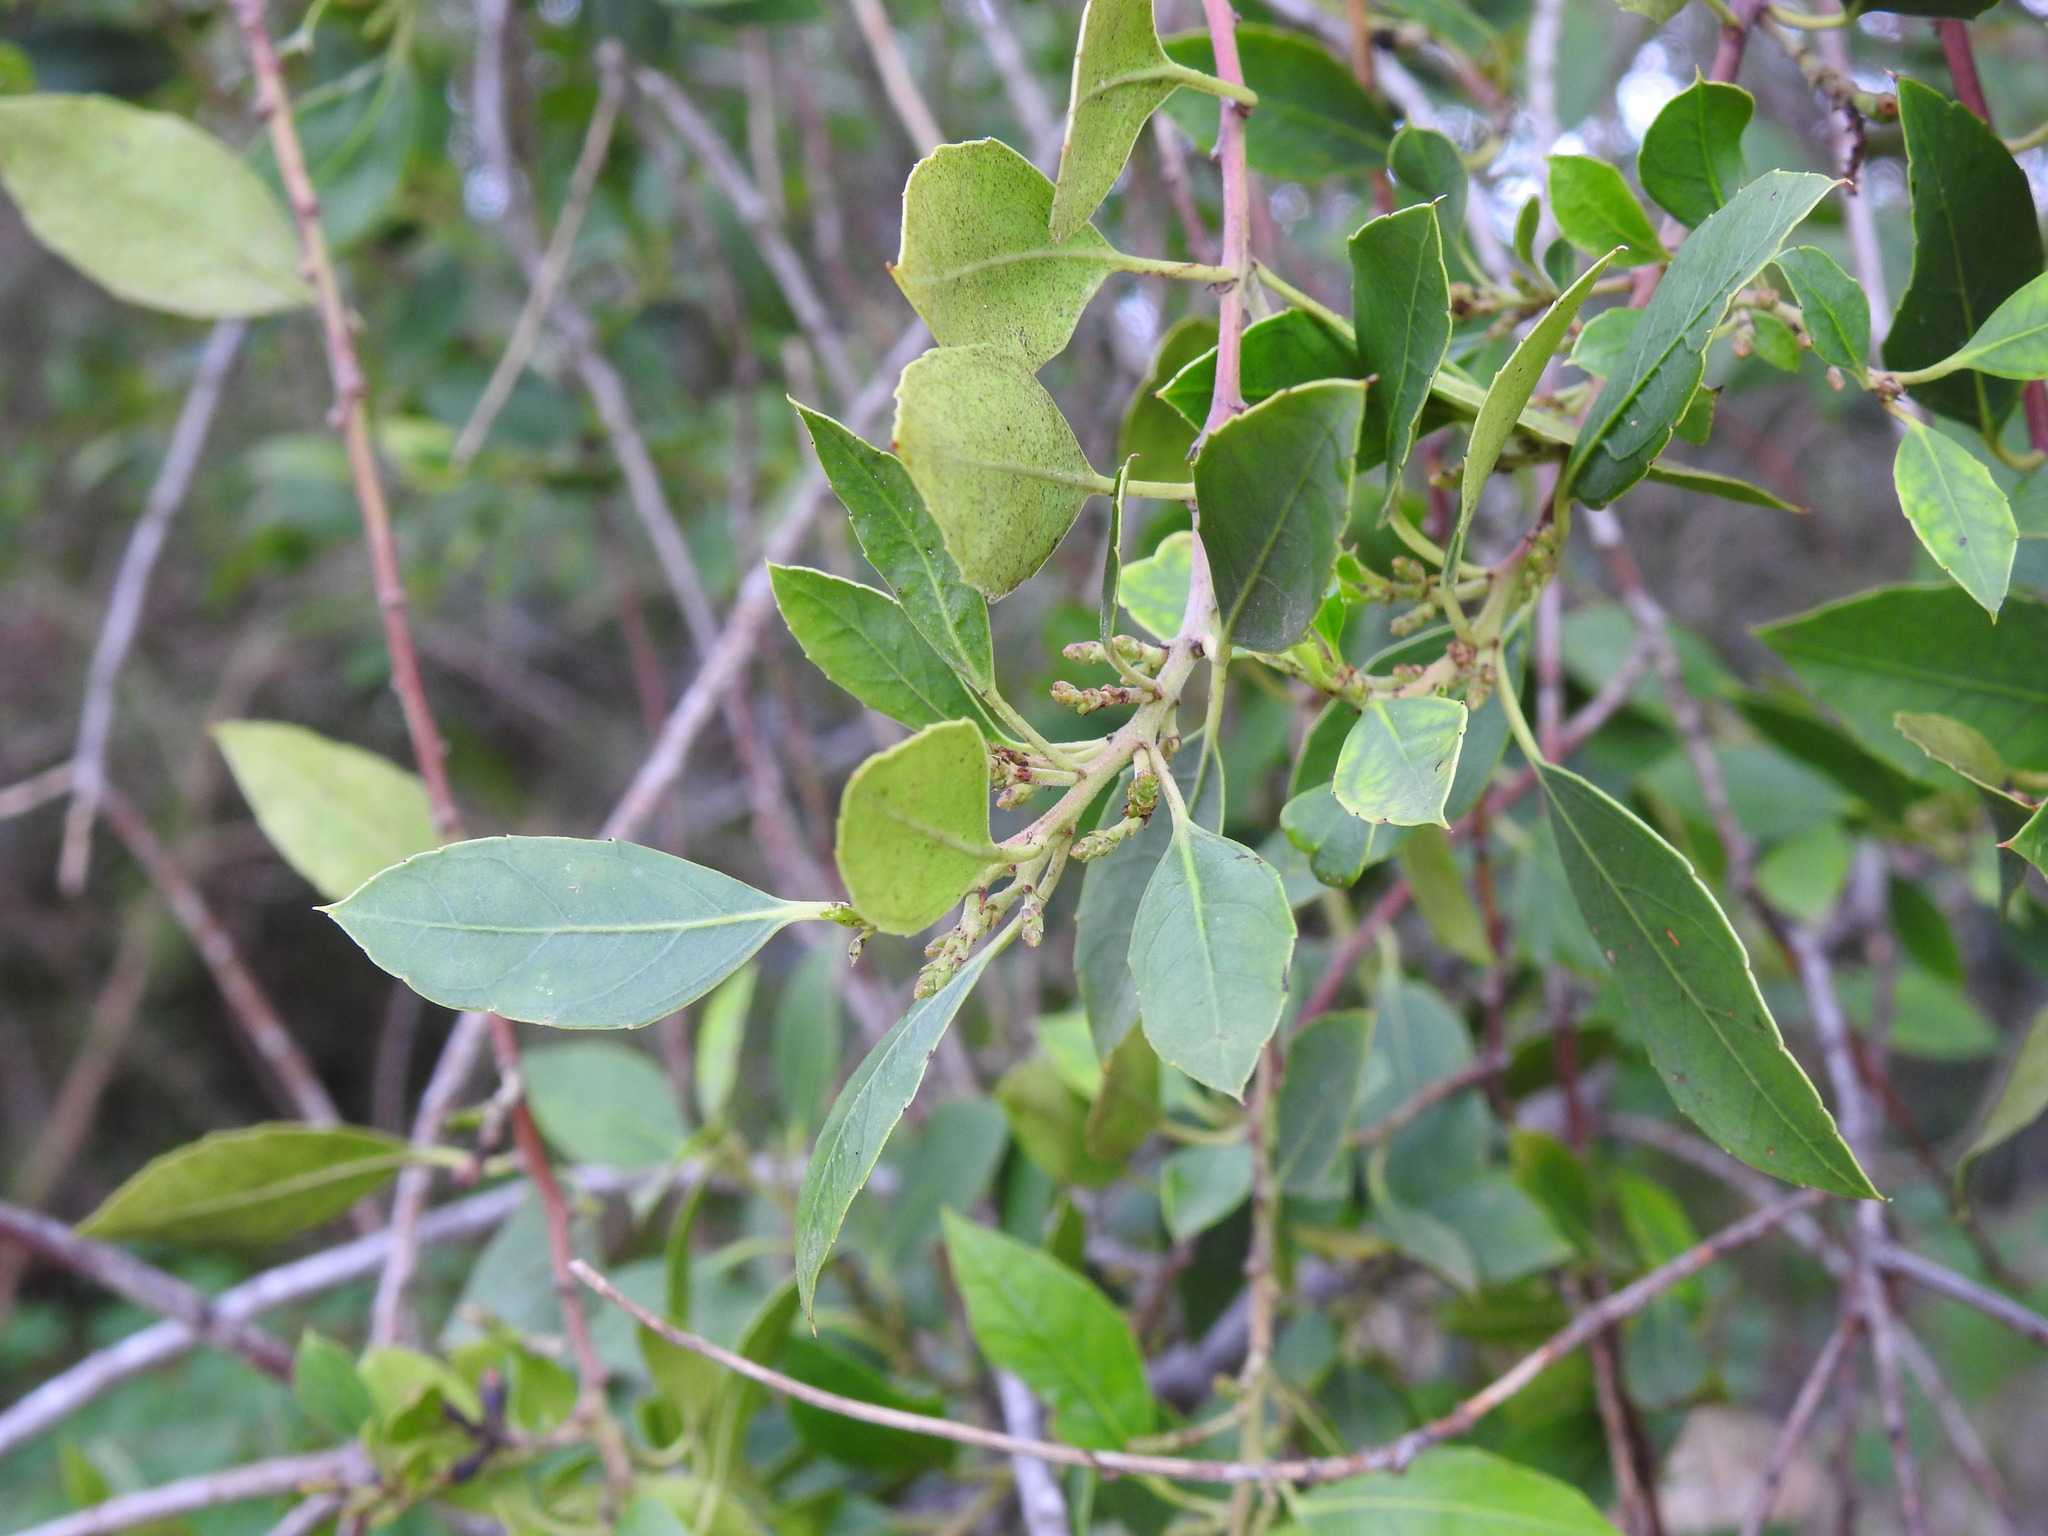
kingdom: Plantae
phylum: Tracheophyta
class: Magnoliopsida
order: Rosales
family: Rhamnaceae
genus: Rhamnus
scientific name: Rhamnus alaternus
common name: Mediterranean buckthorn
